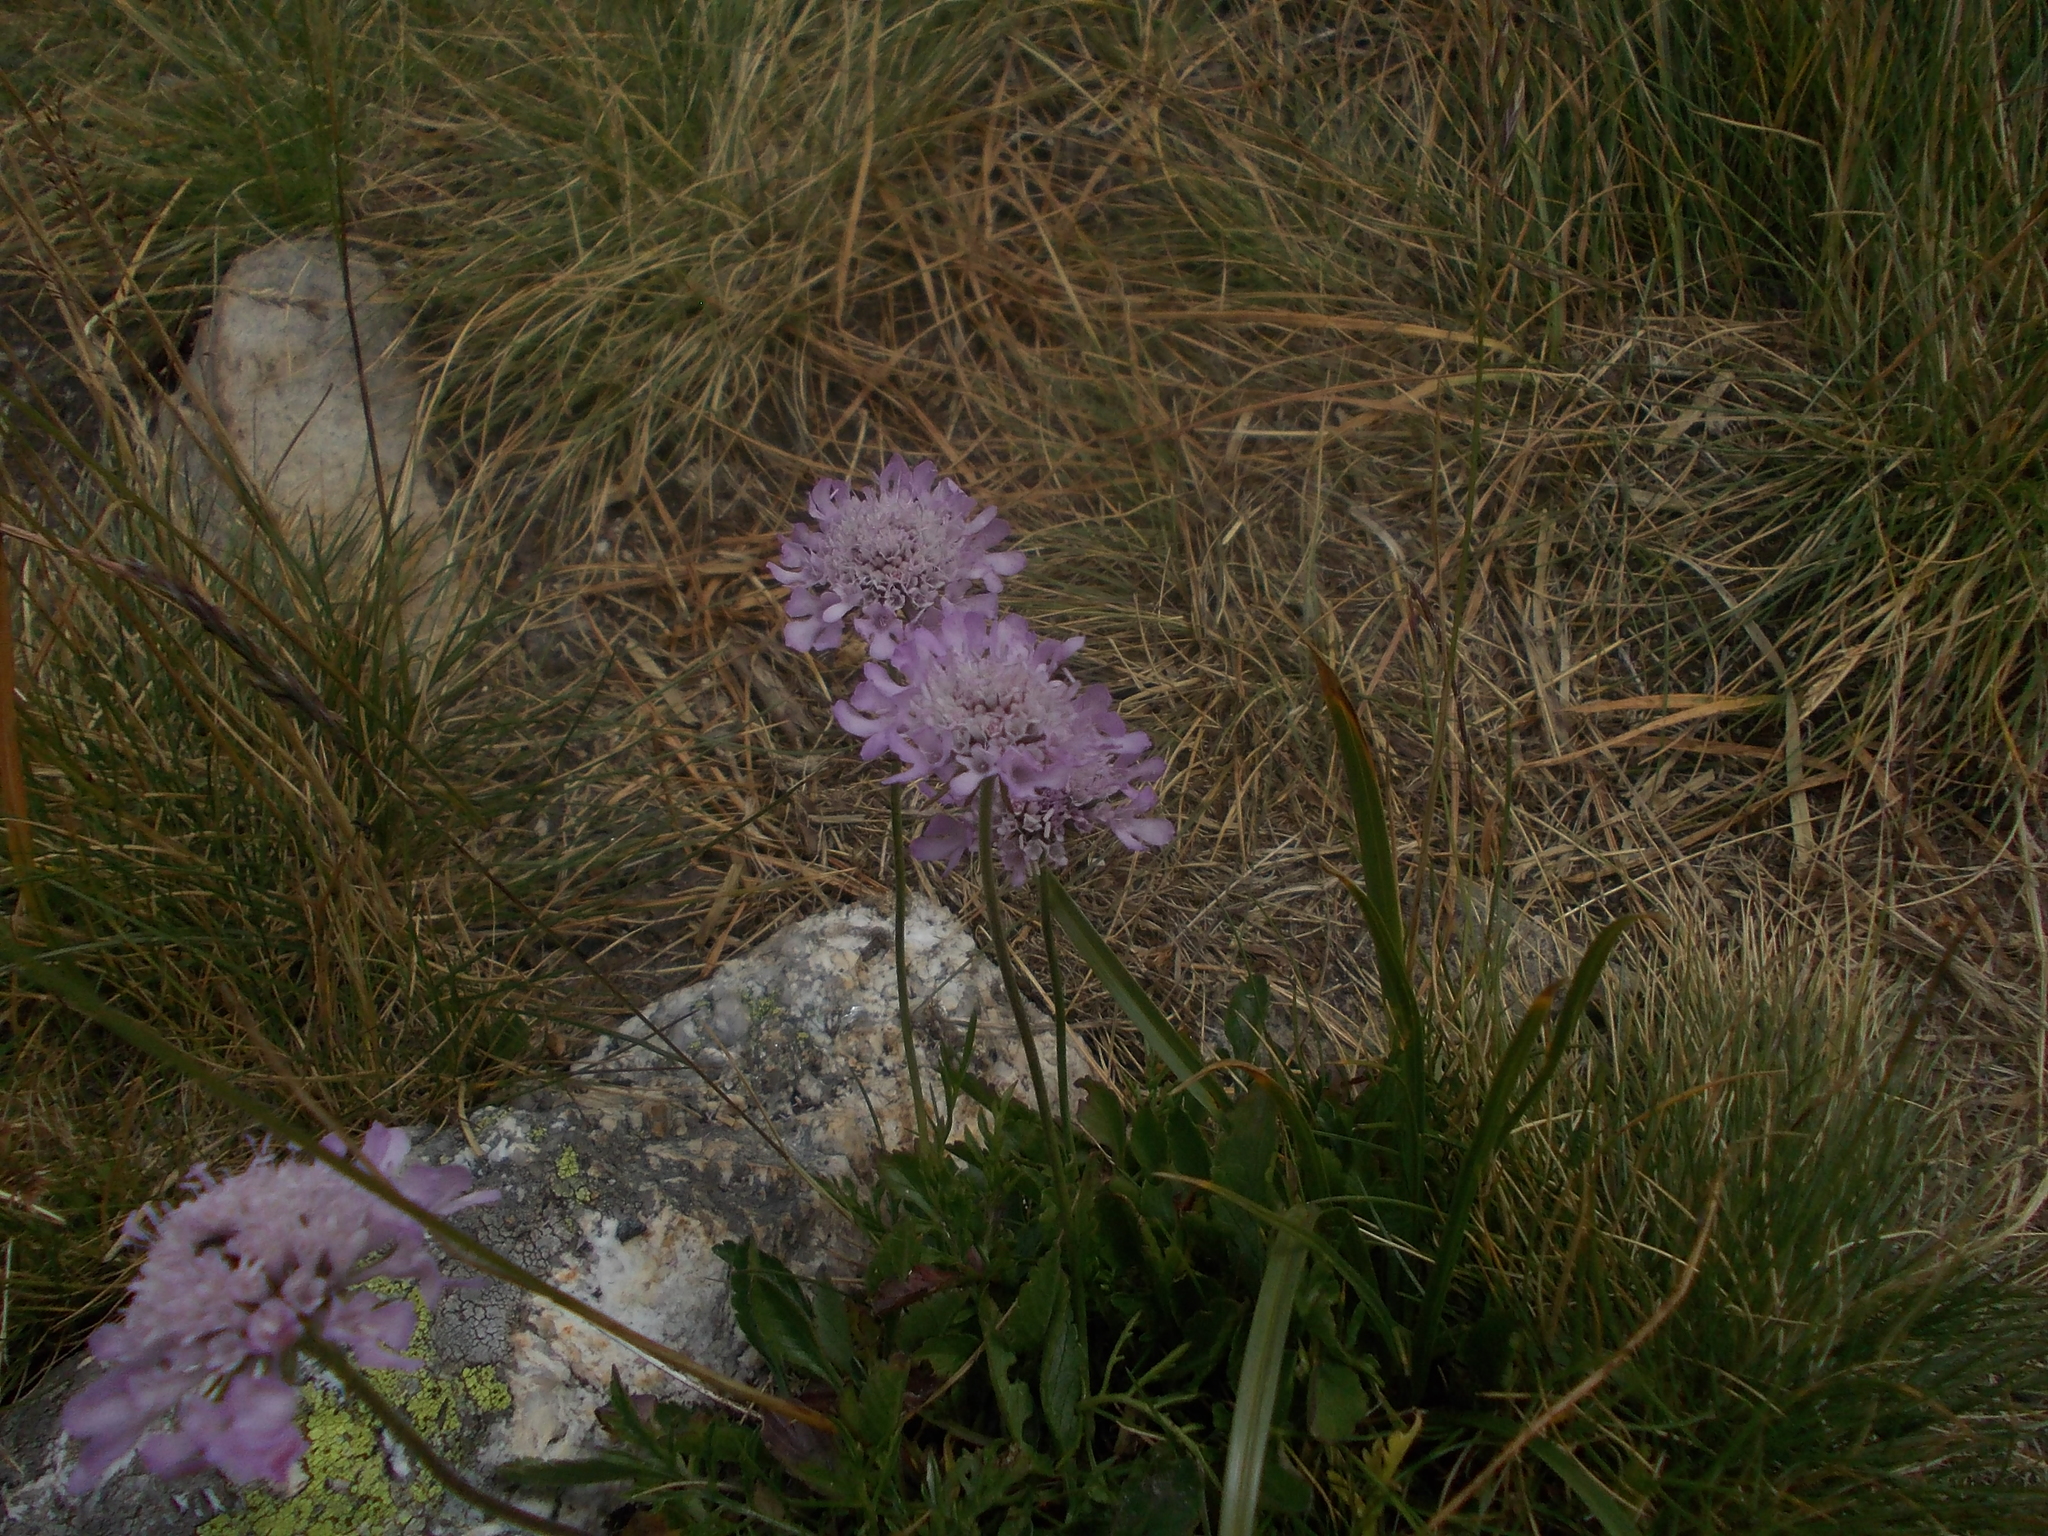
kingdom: Plantae
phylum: Tracheophyta
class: Magnoliopsida
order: Dipsacales
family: Caprifoliaceae
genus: Scabiosa
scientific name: Scabiosa columbaria
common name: Small scabious
